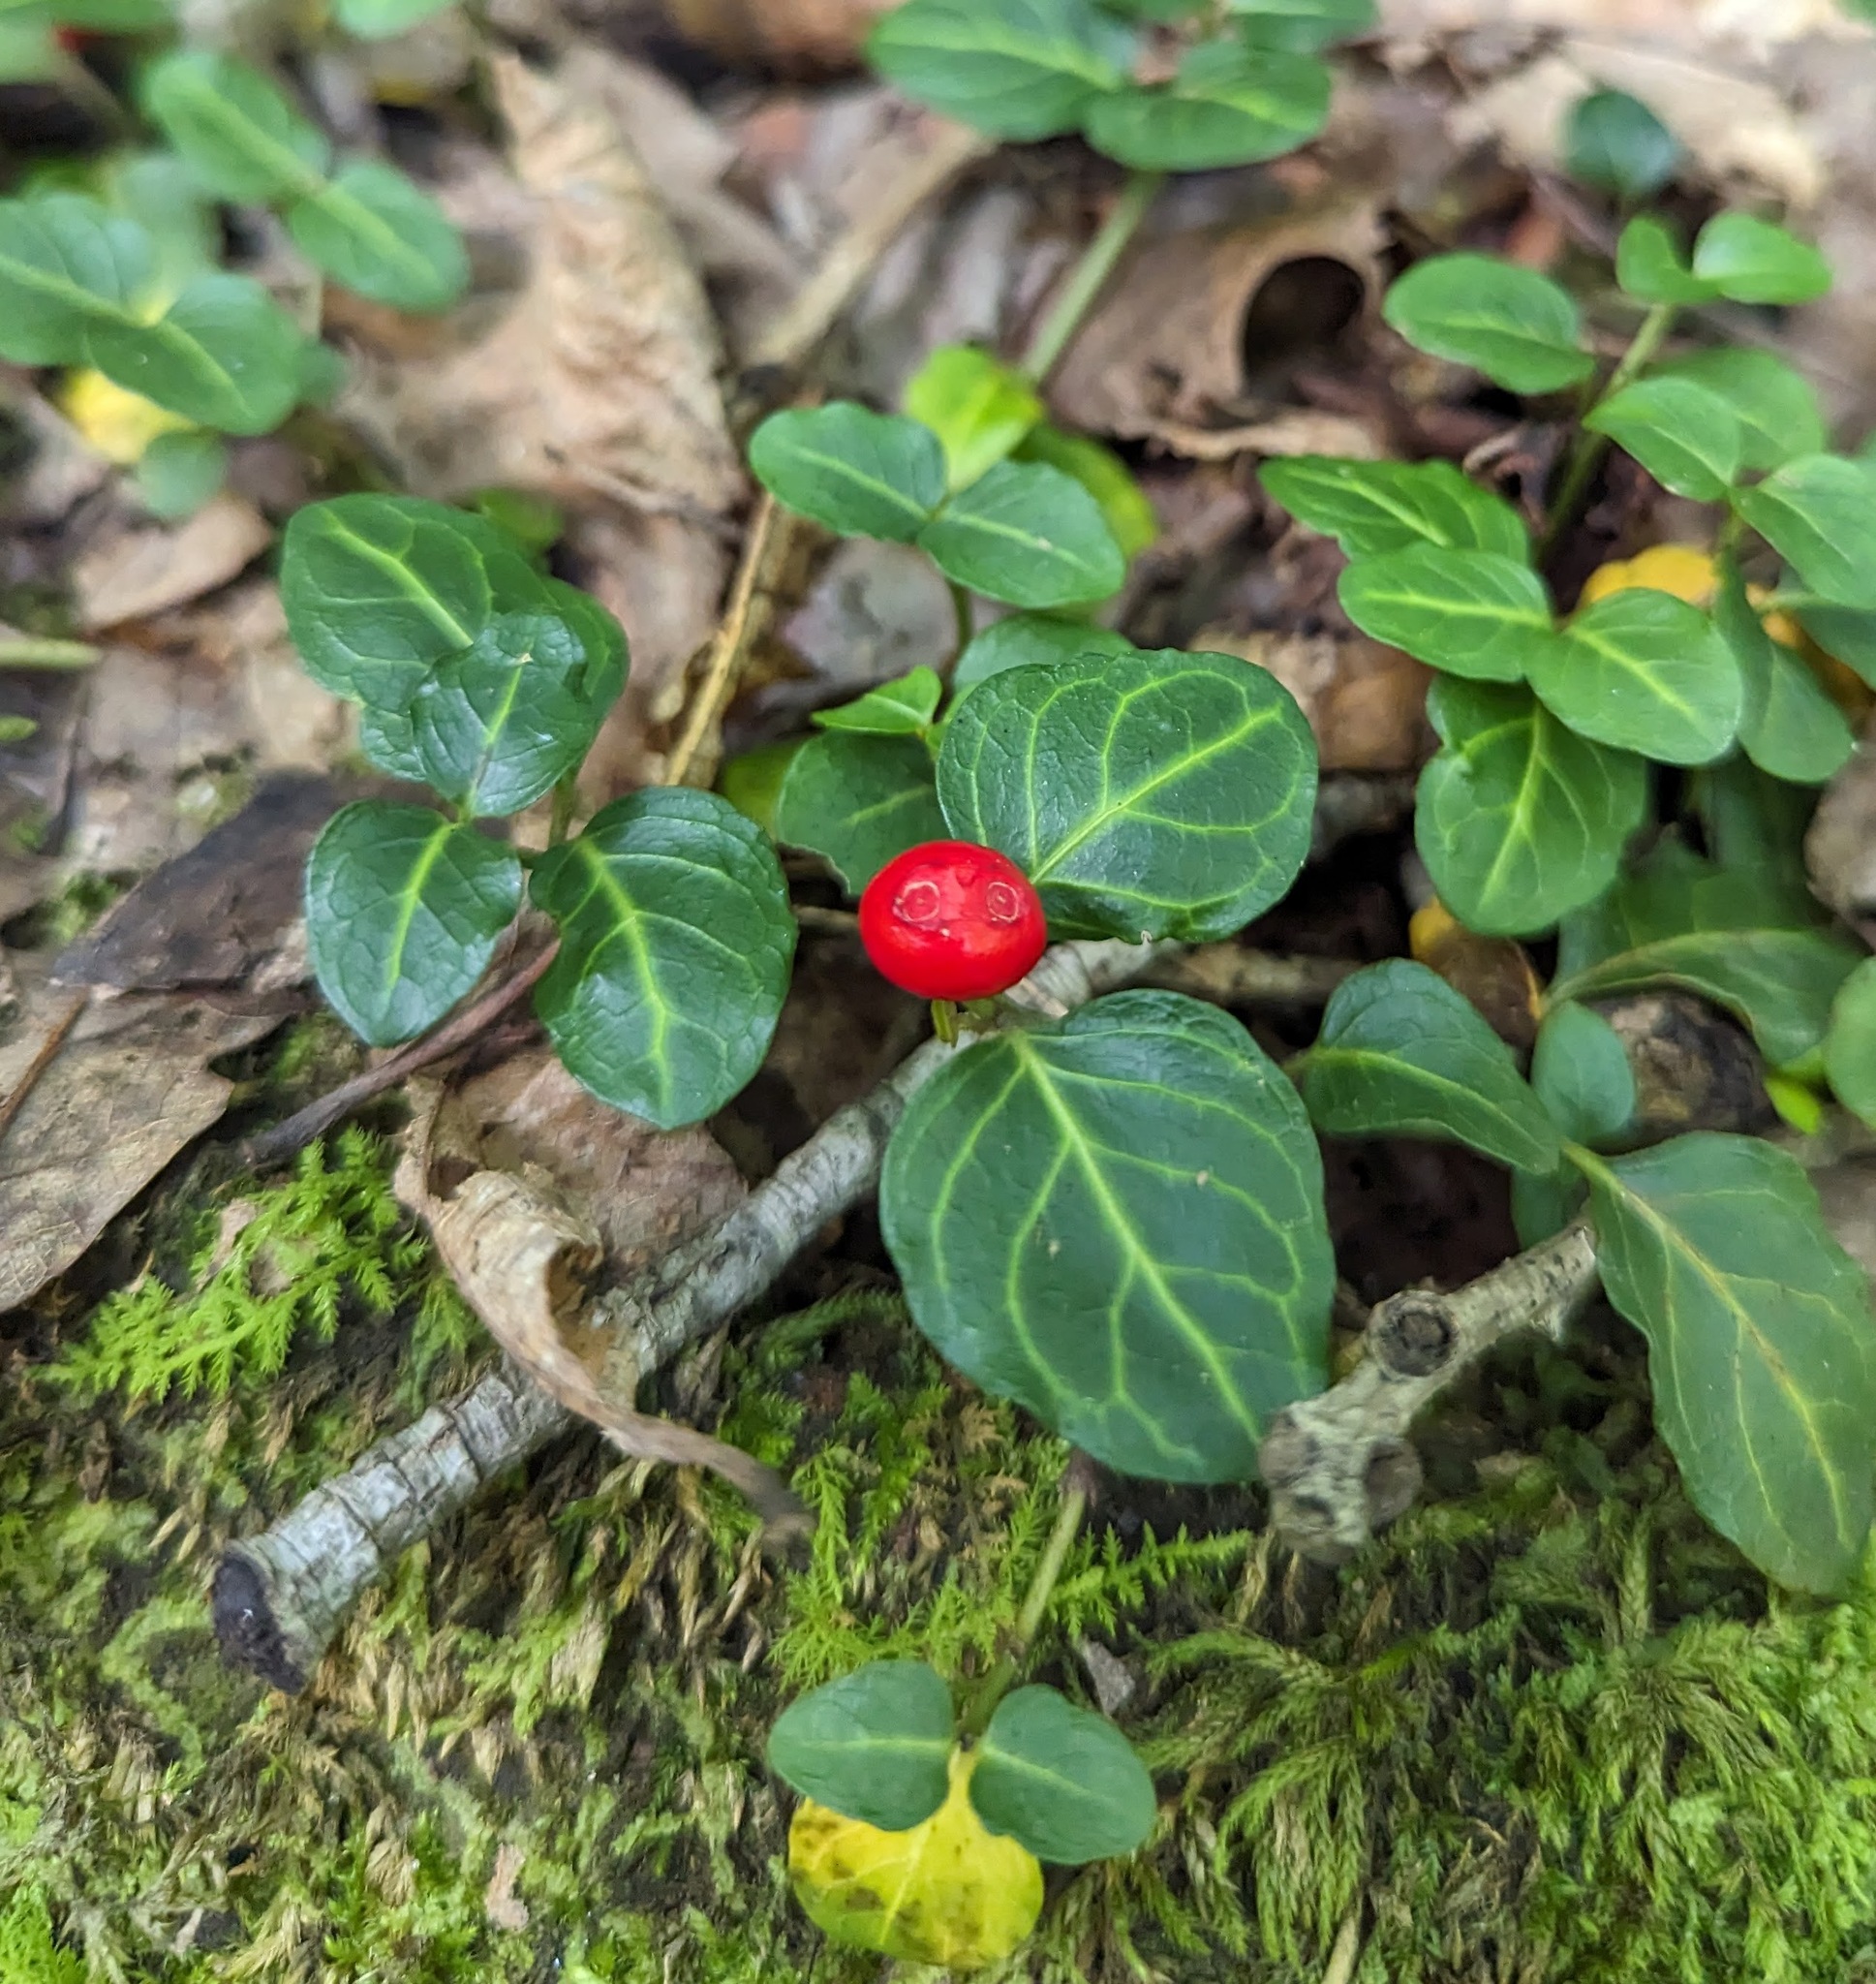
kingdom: Plantae
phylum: Tracheophyta
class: Magnoliopsida
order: Gentianales
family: Rubiaceae
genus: Mitchella
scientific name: Mitchella repens
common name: Partridge-berry
